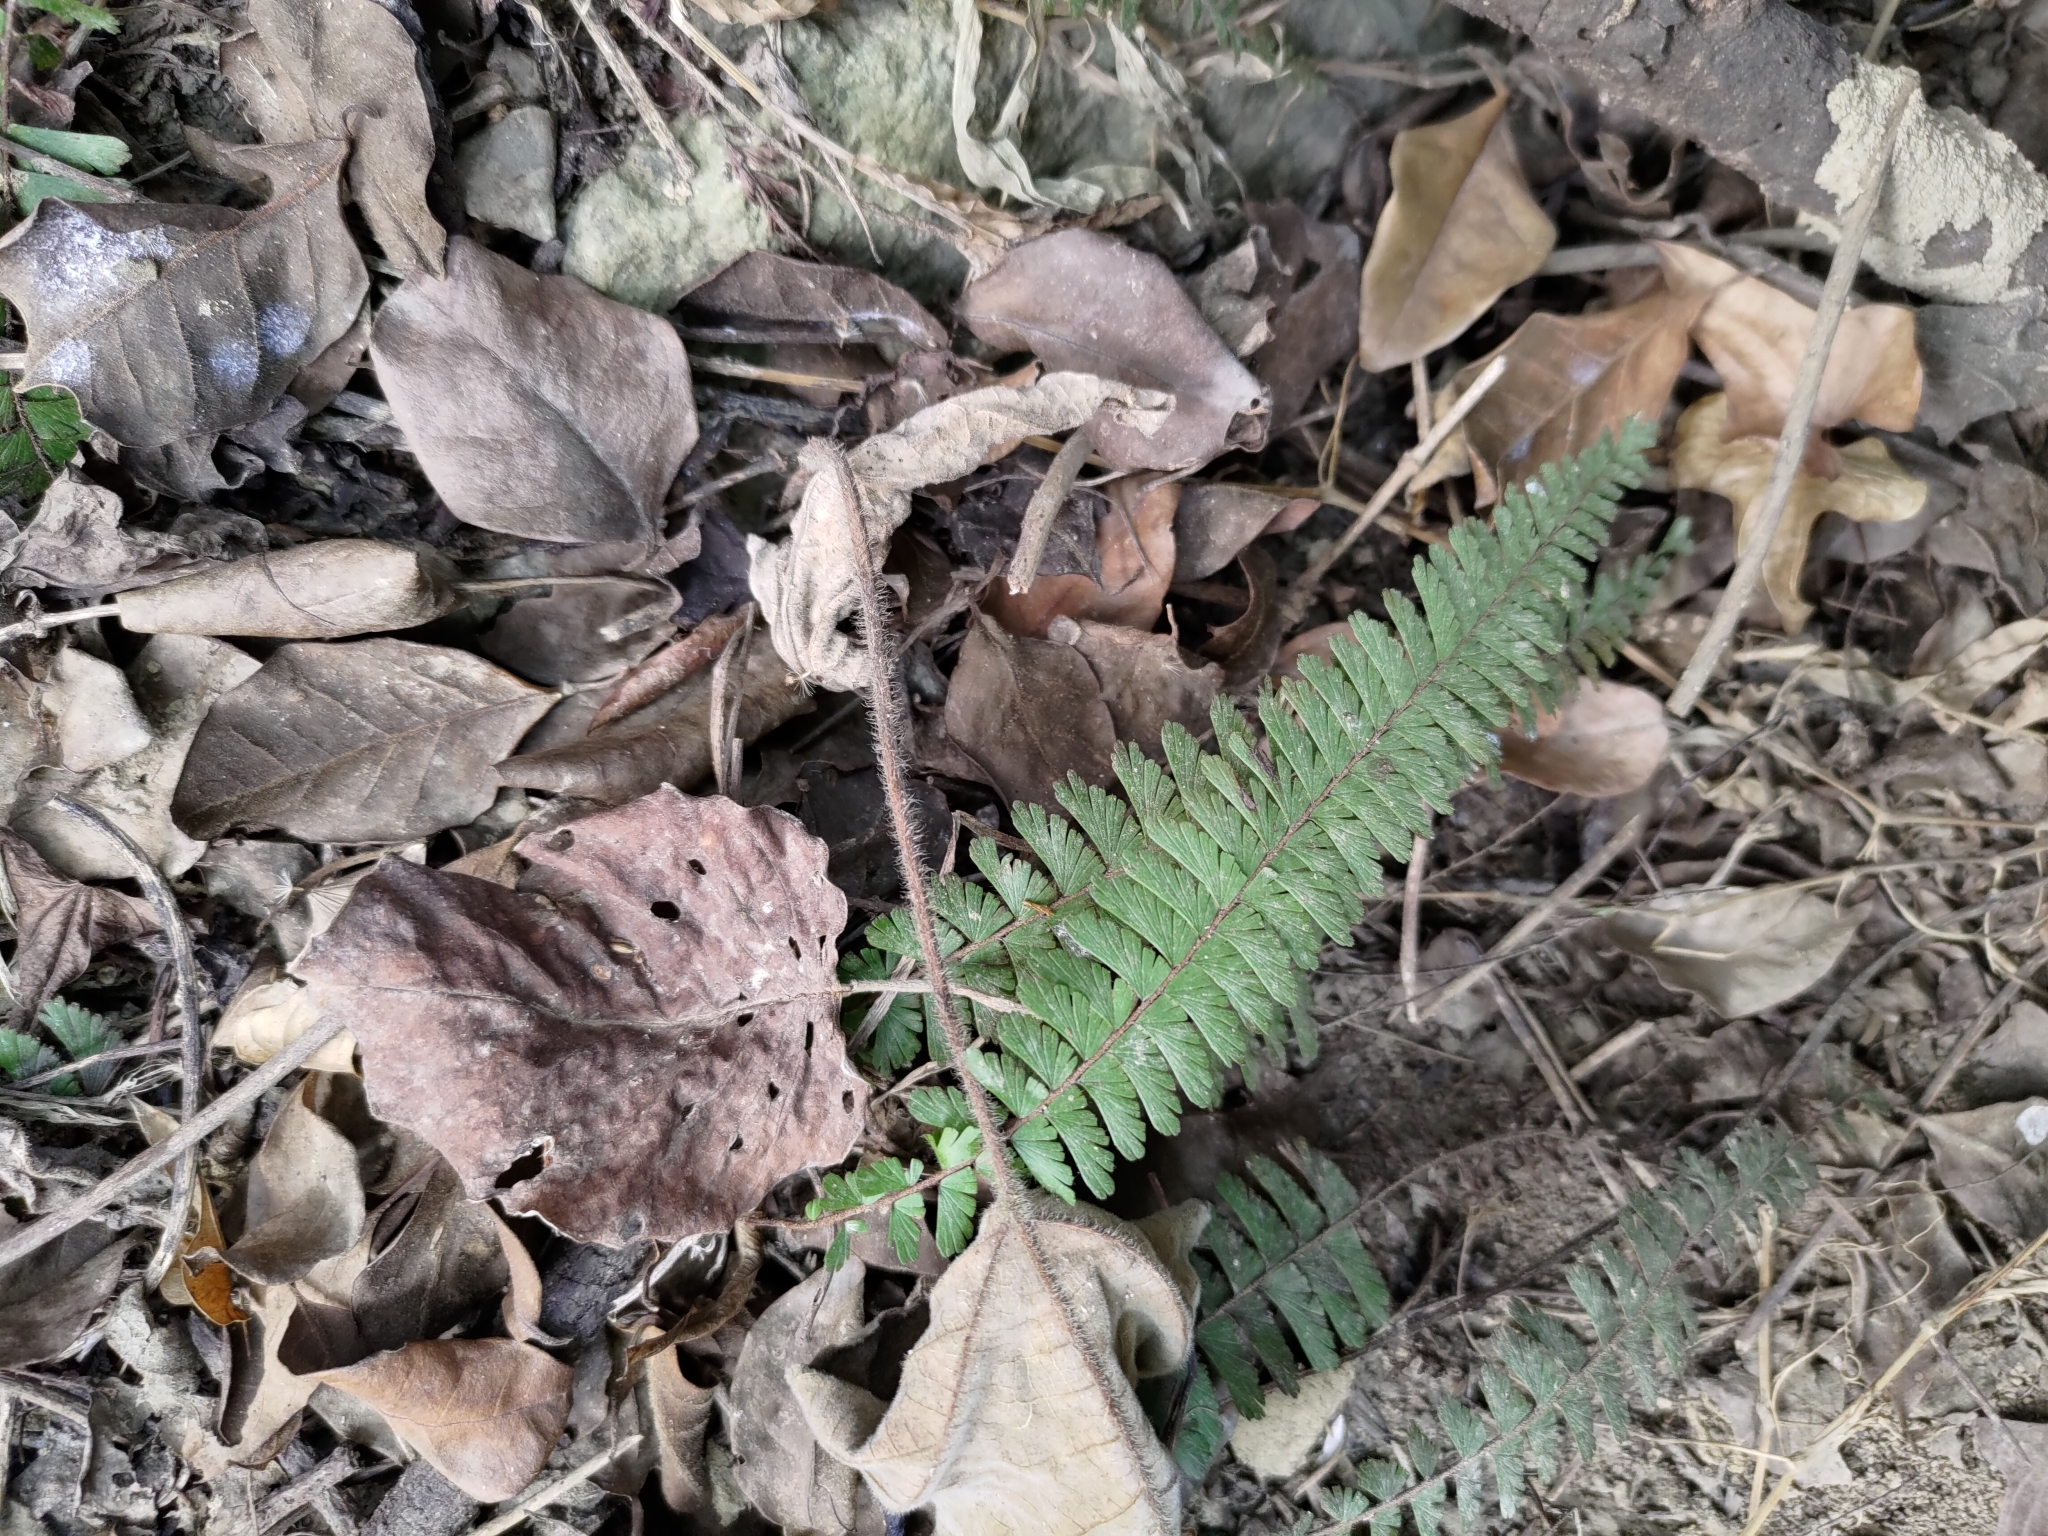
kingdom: Plantae
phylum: Tracheophyta
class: Polypodiopsida
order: Polypodiales
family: Pteridaceae
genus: Adiantum
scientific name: Adiantum caudatum
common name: Tailed maidenhair
